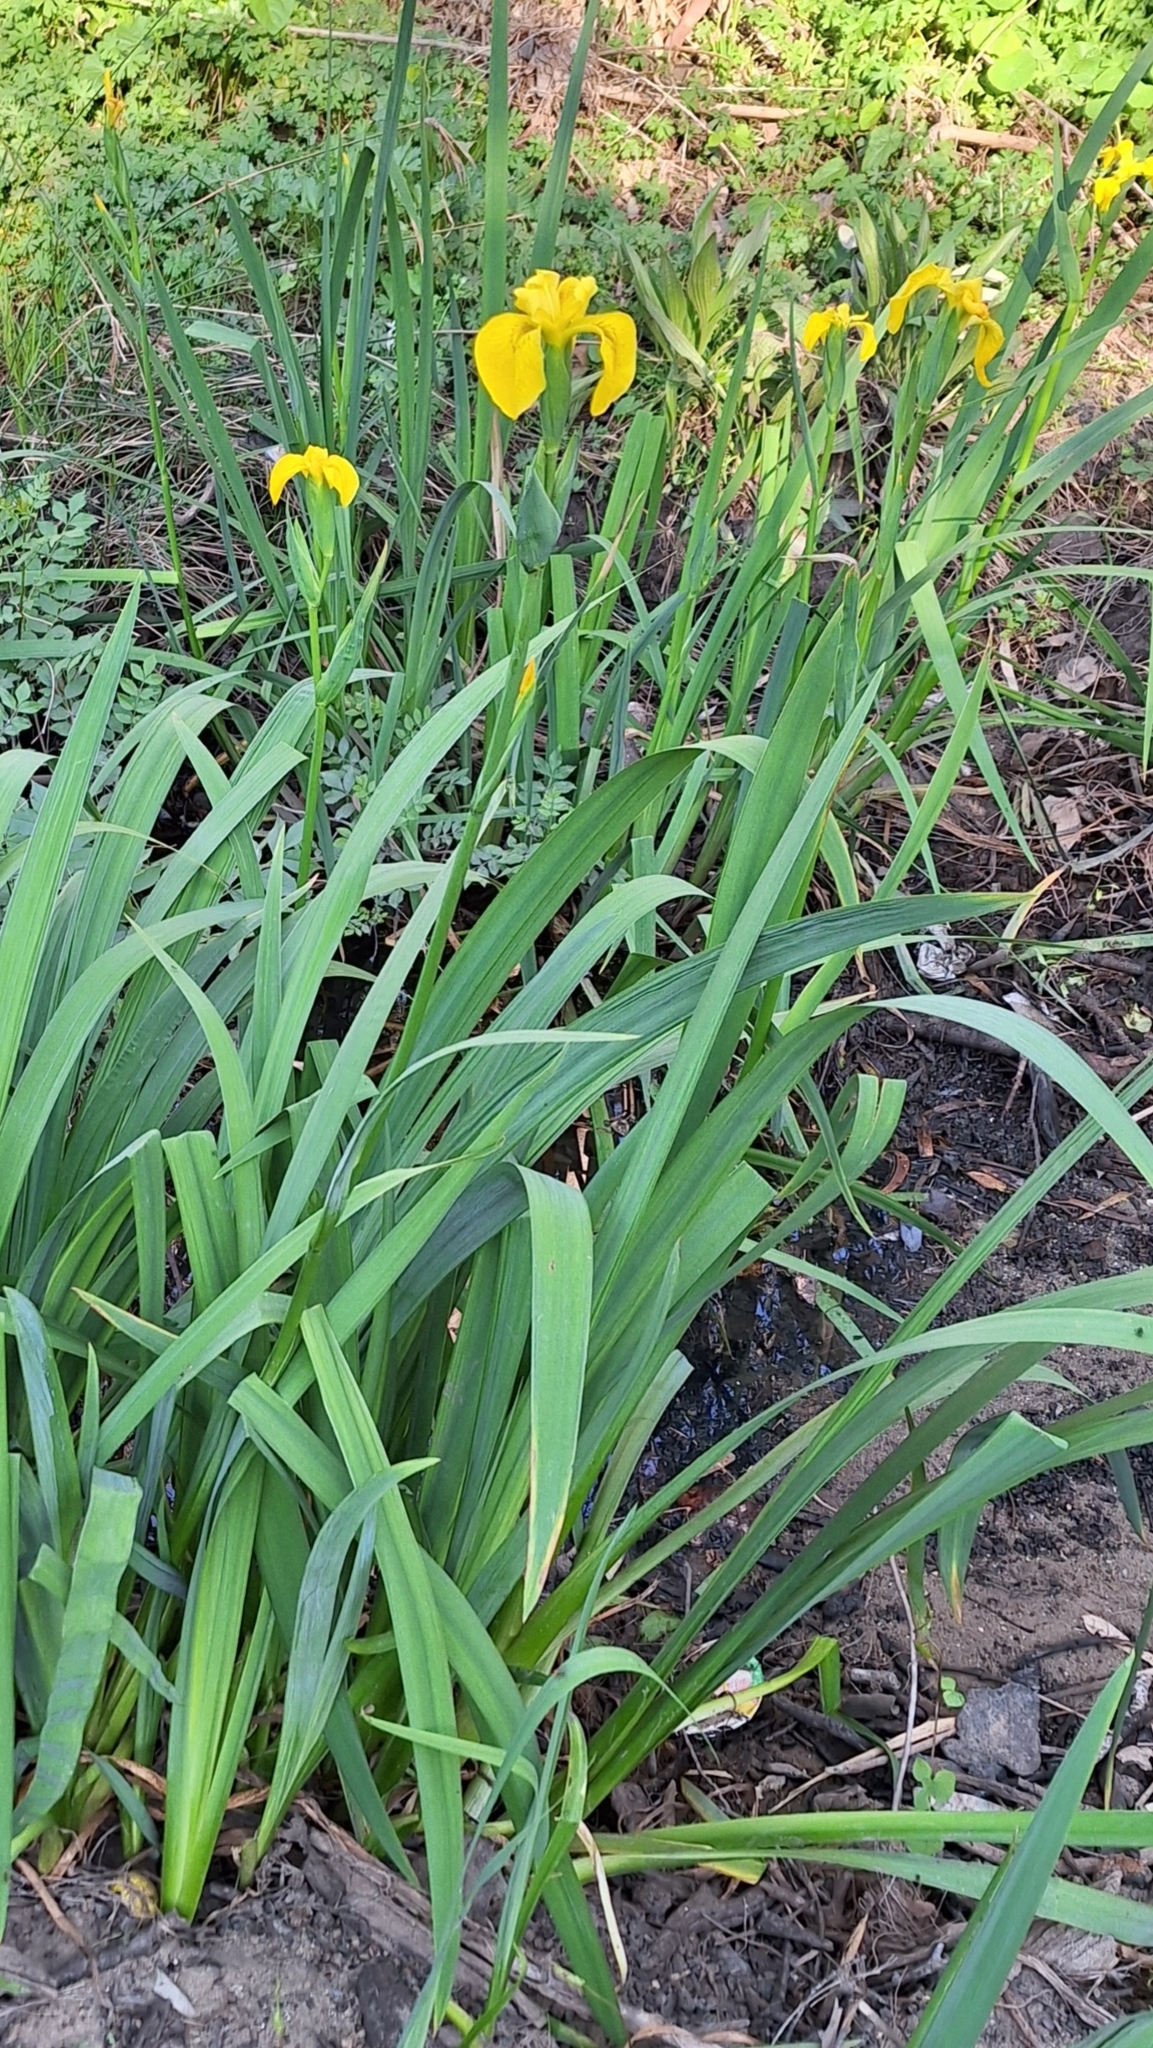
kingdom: Plantae
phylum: Tracheophyta
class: Liliopsida
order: Asparagales
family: Iridaceae
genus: Iris
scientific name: Iris pseudacorus
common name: Yellow flag
